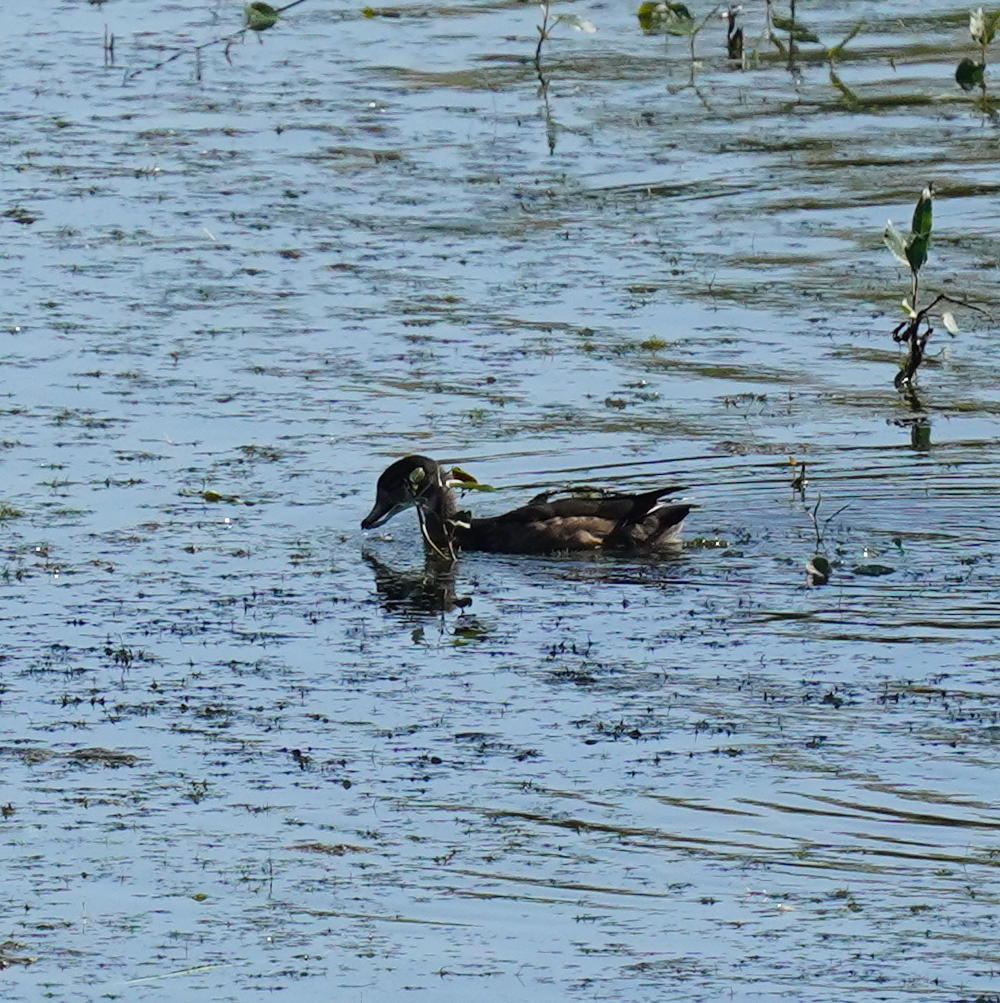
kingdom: Animalia
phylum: Chordata
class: Aves
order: Anseriformes
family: Anatidae
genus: Aix
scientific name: Aix sponsa
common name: Wood duck
